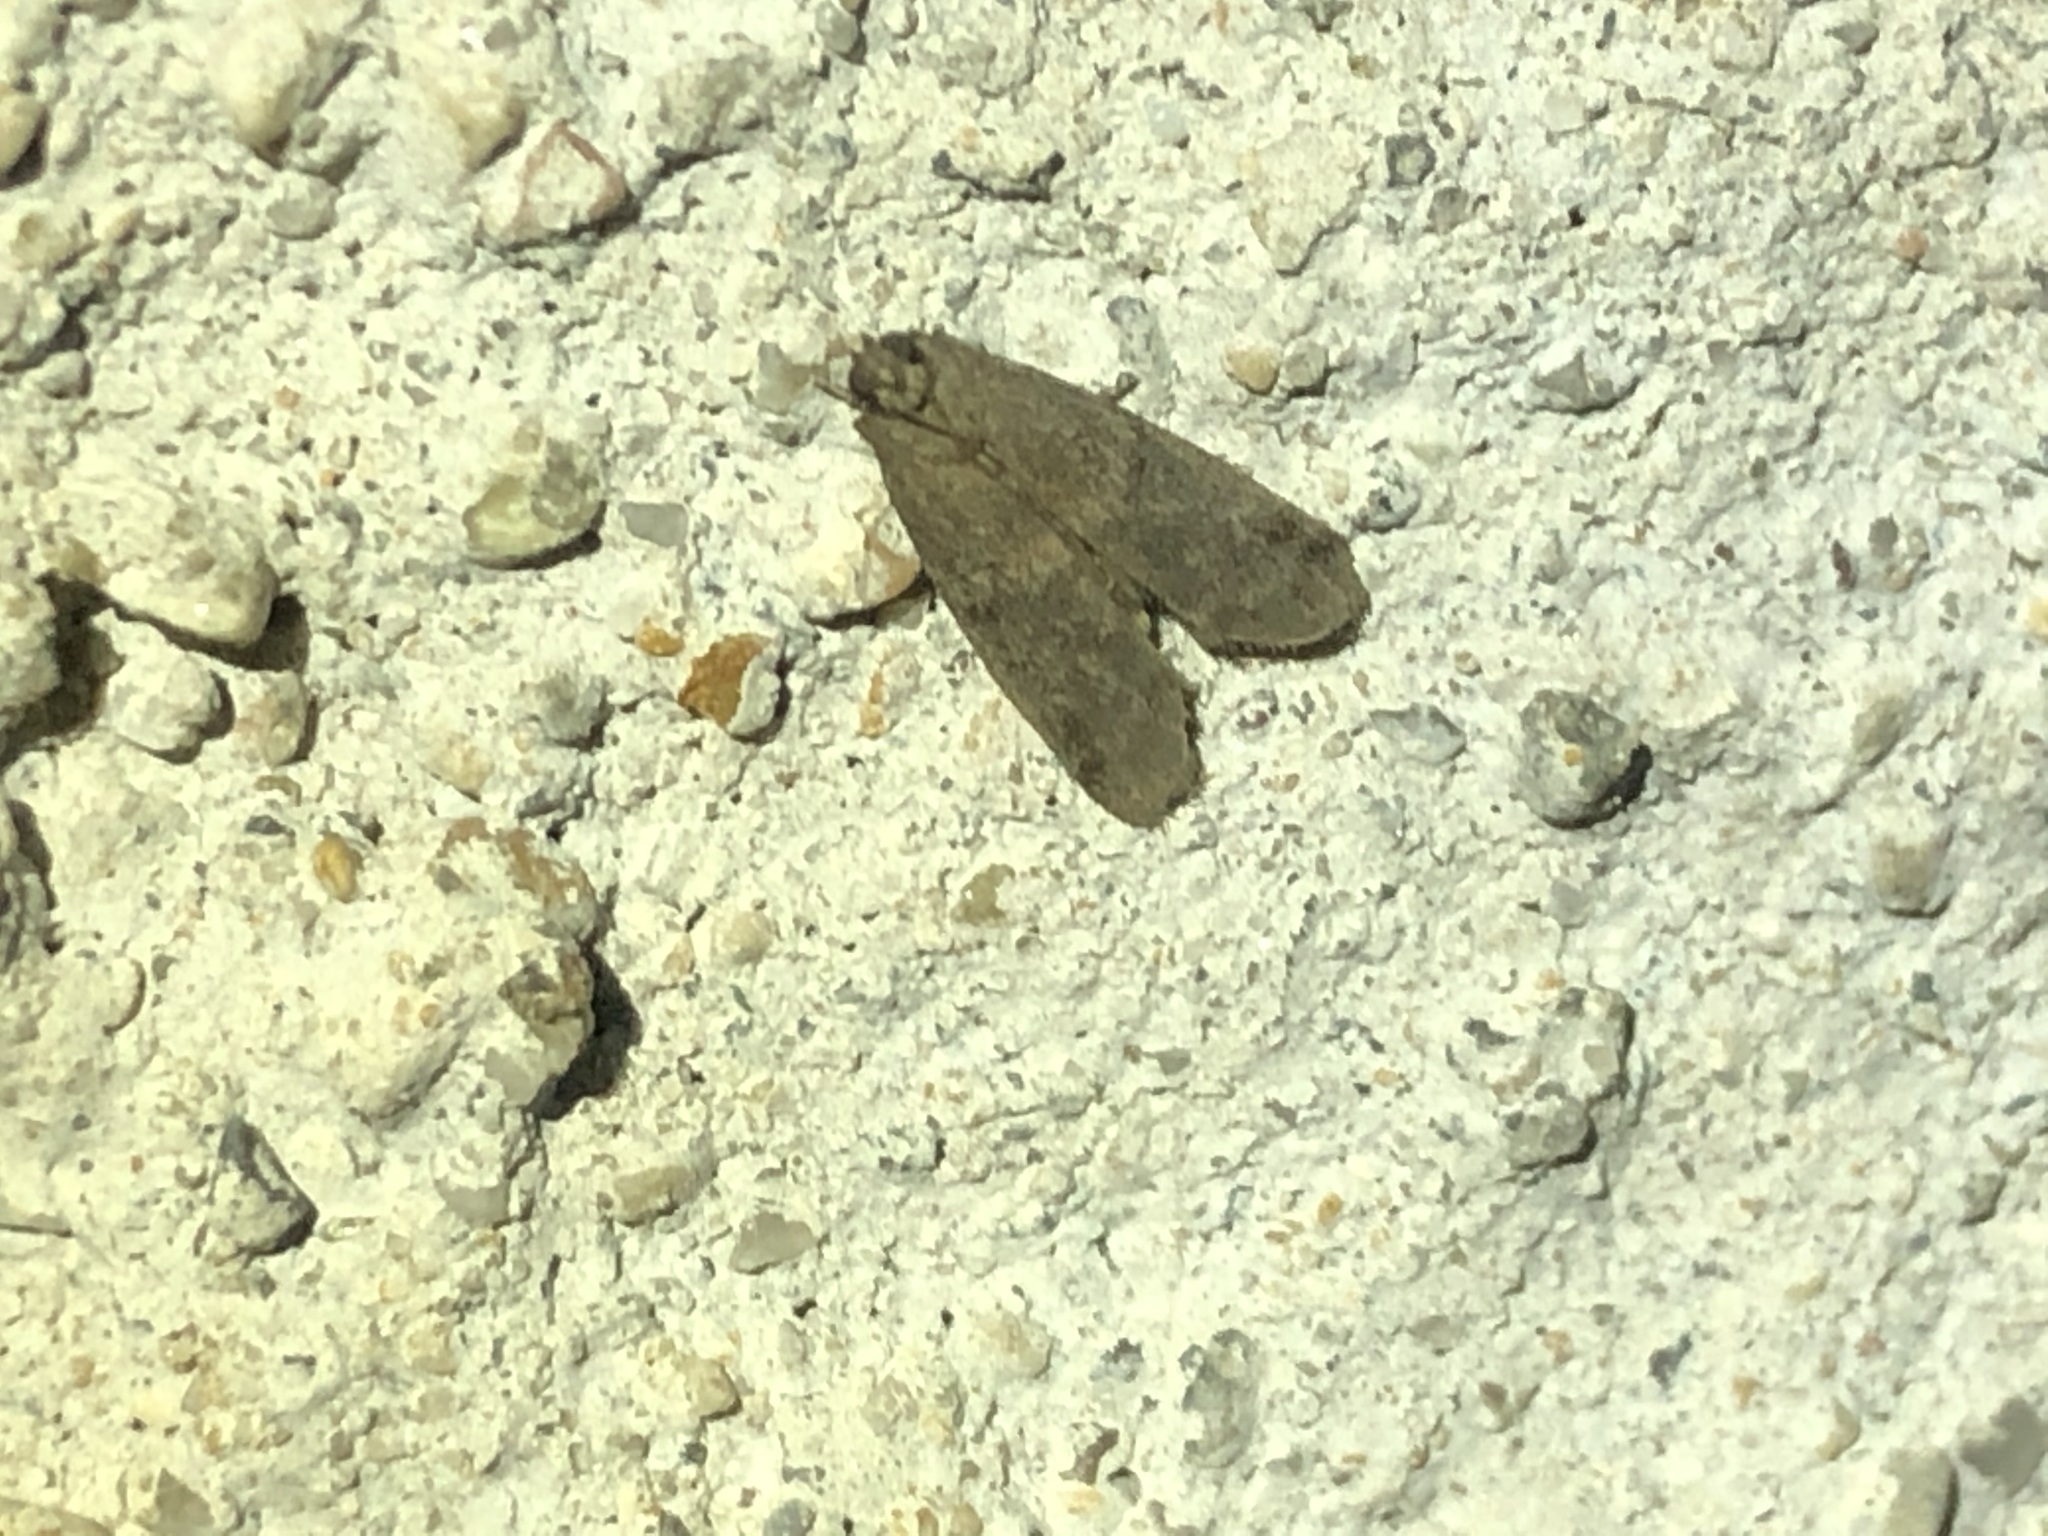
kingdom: Animalia
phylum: Arthropoda
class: Insecta
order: Lepidoptera
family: Pyralidae
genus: Ephestia
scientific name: Ephestia elutella
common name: Cacao moth
